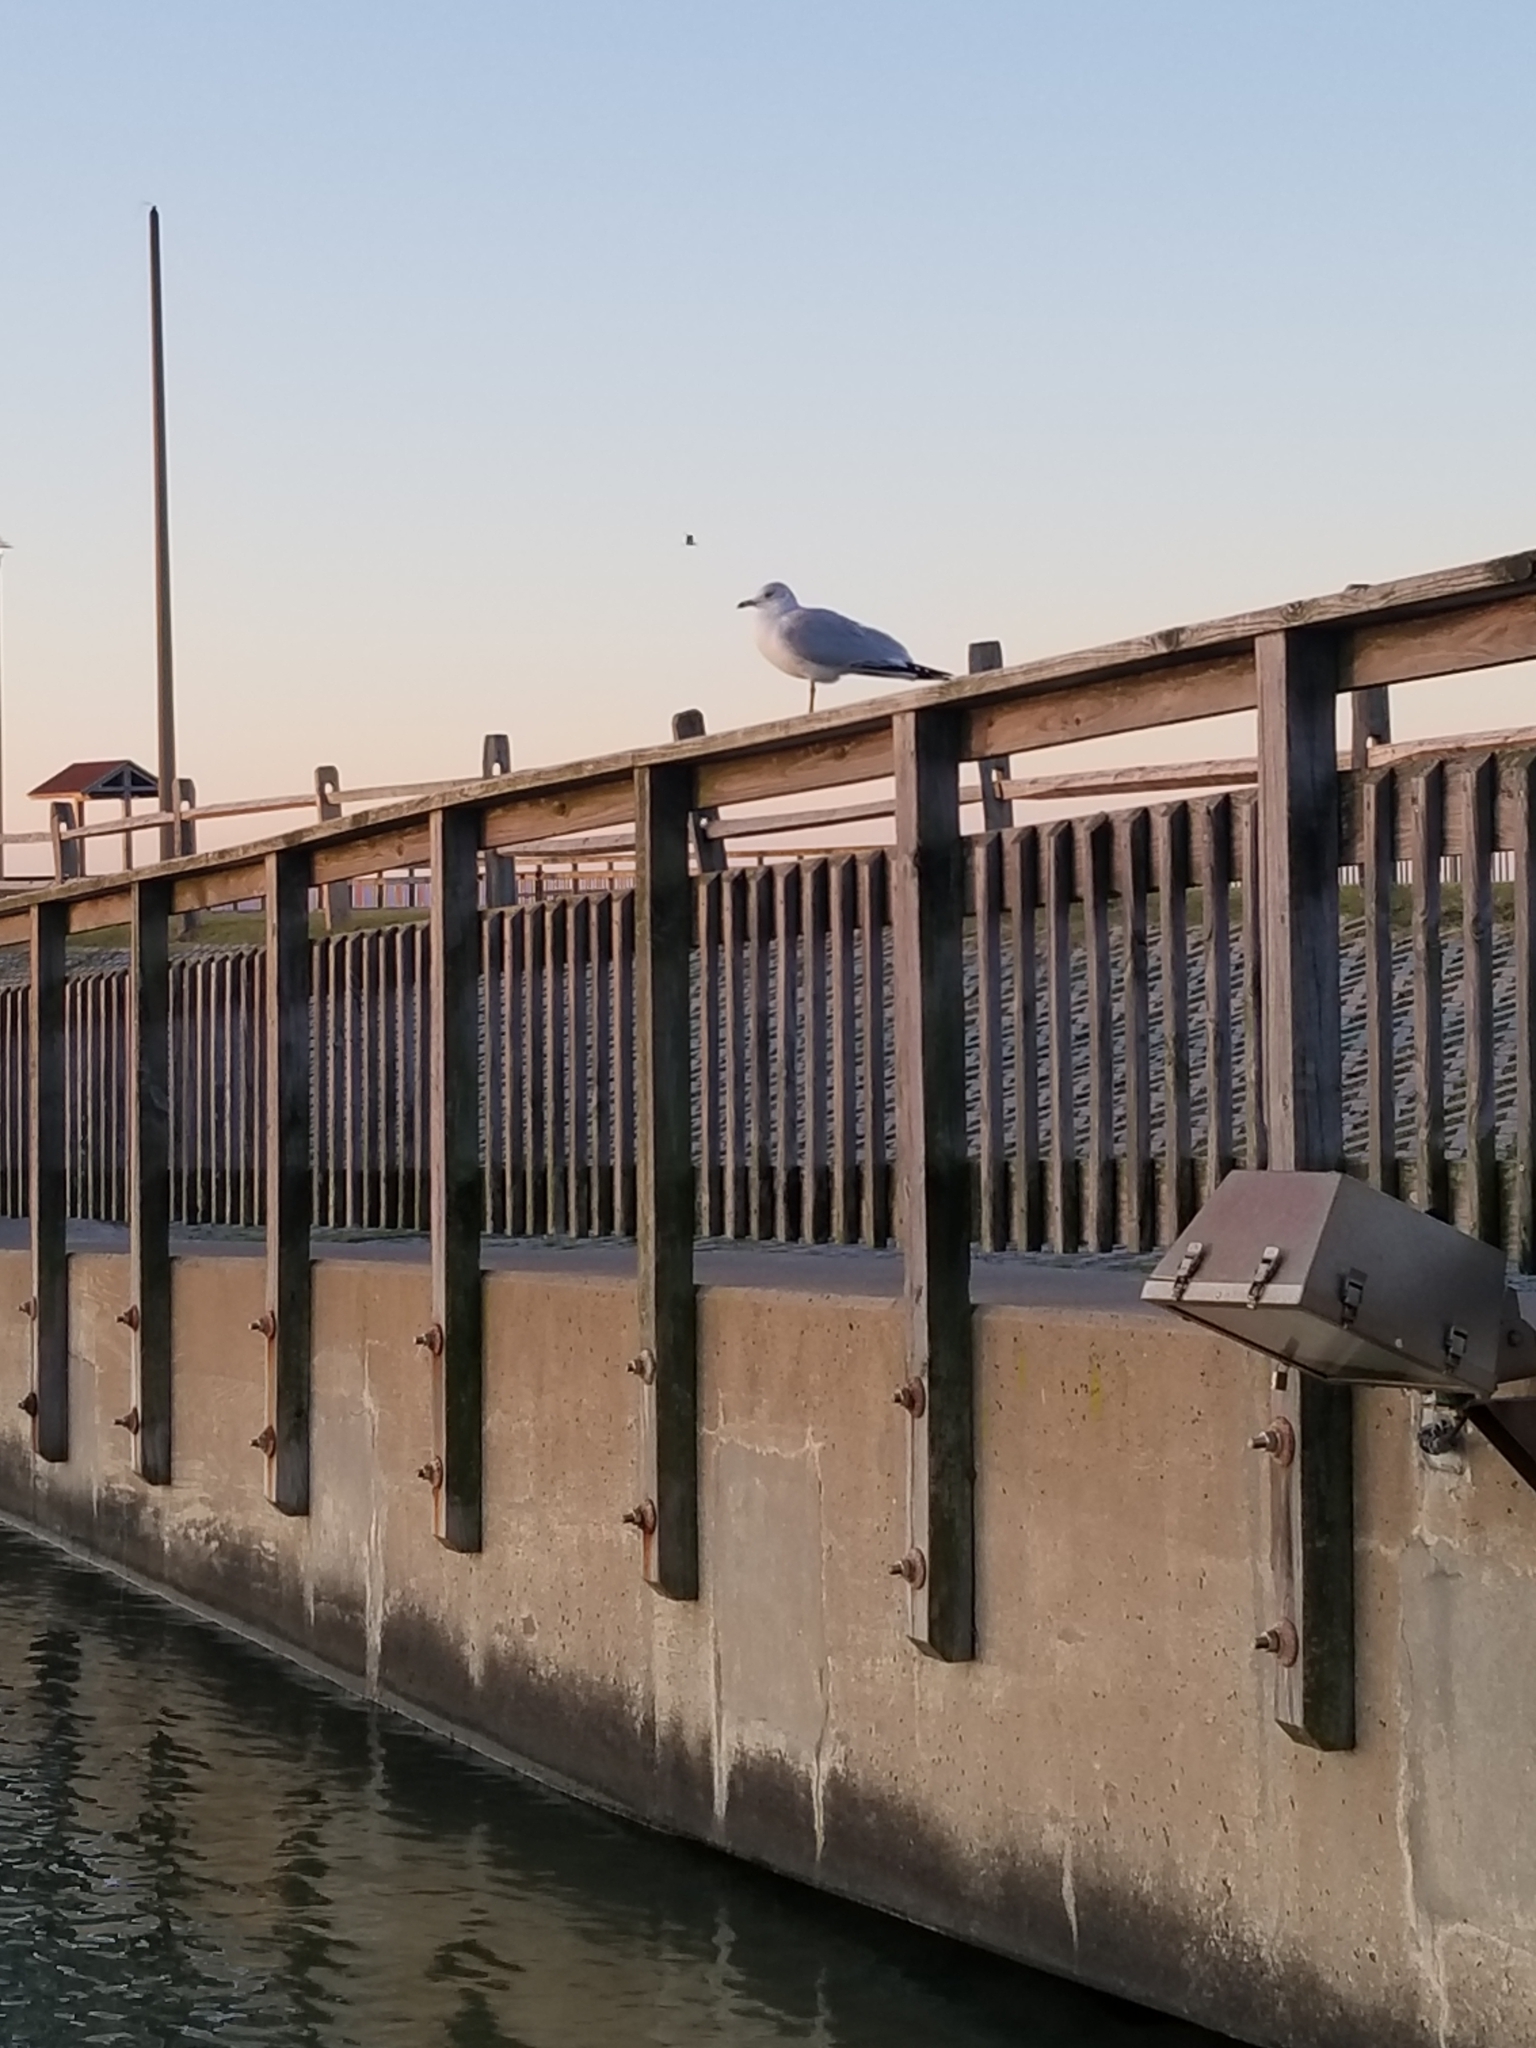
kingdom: Animalia
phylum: Chordata
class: Aves
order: Charadriiformes
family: Laridae
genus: Larus
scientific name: Larus delawarensis
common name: Ring-billed gull
